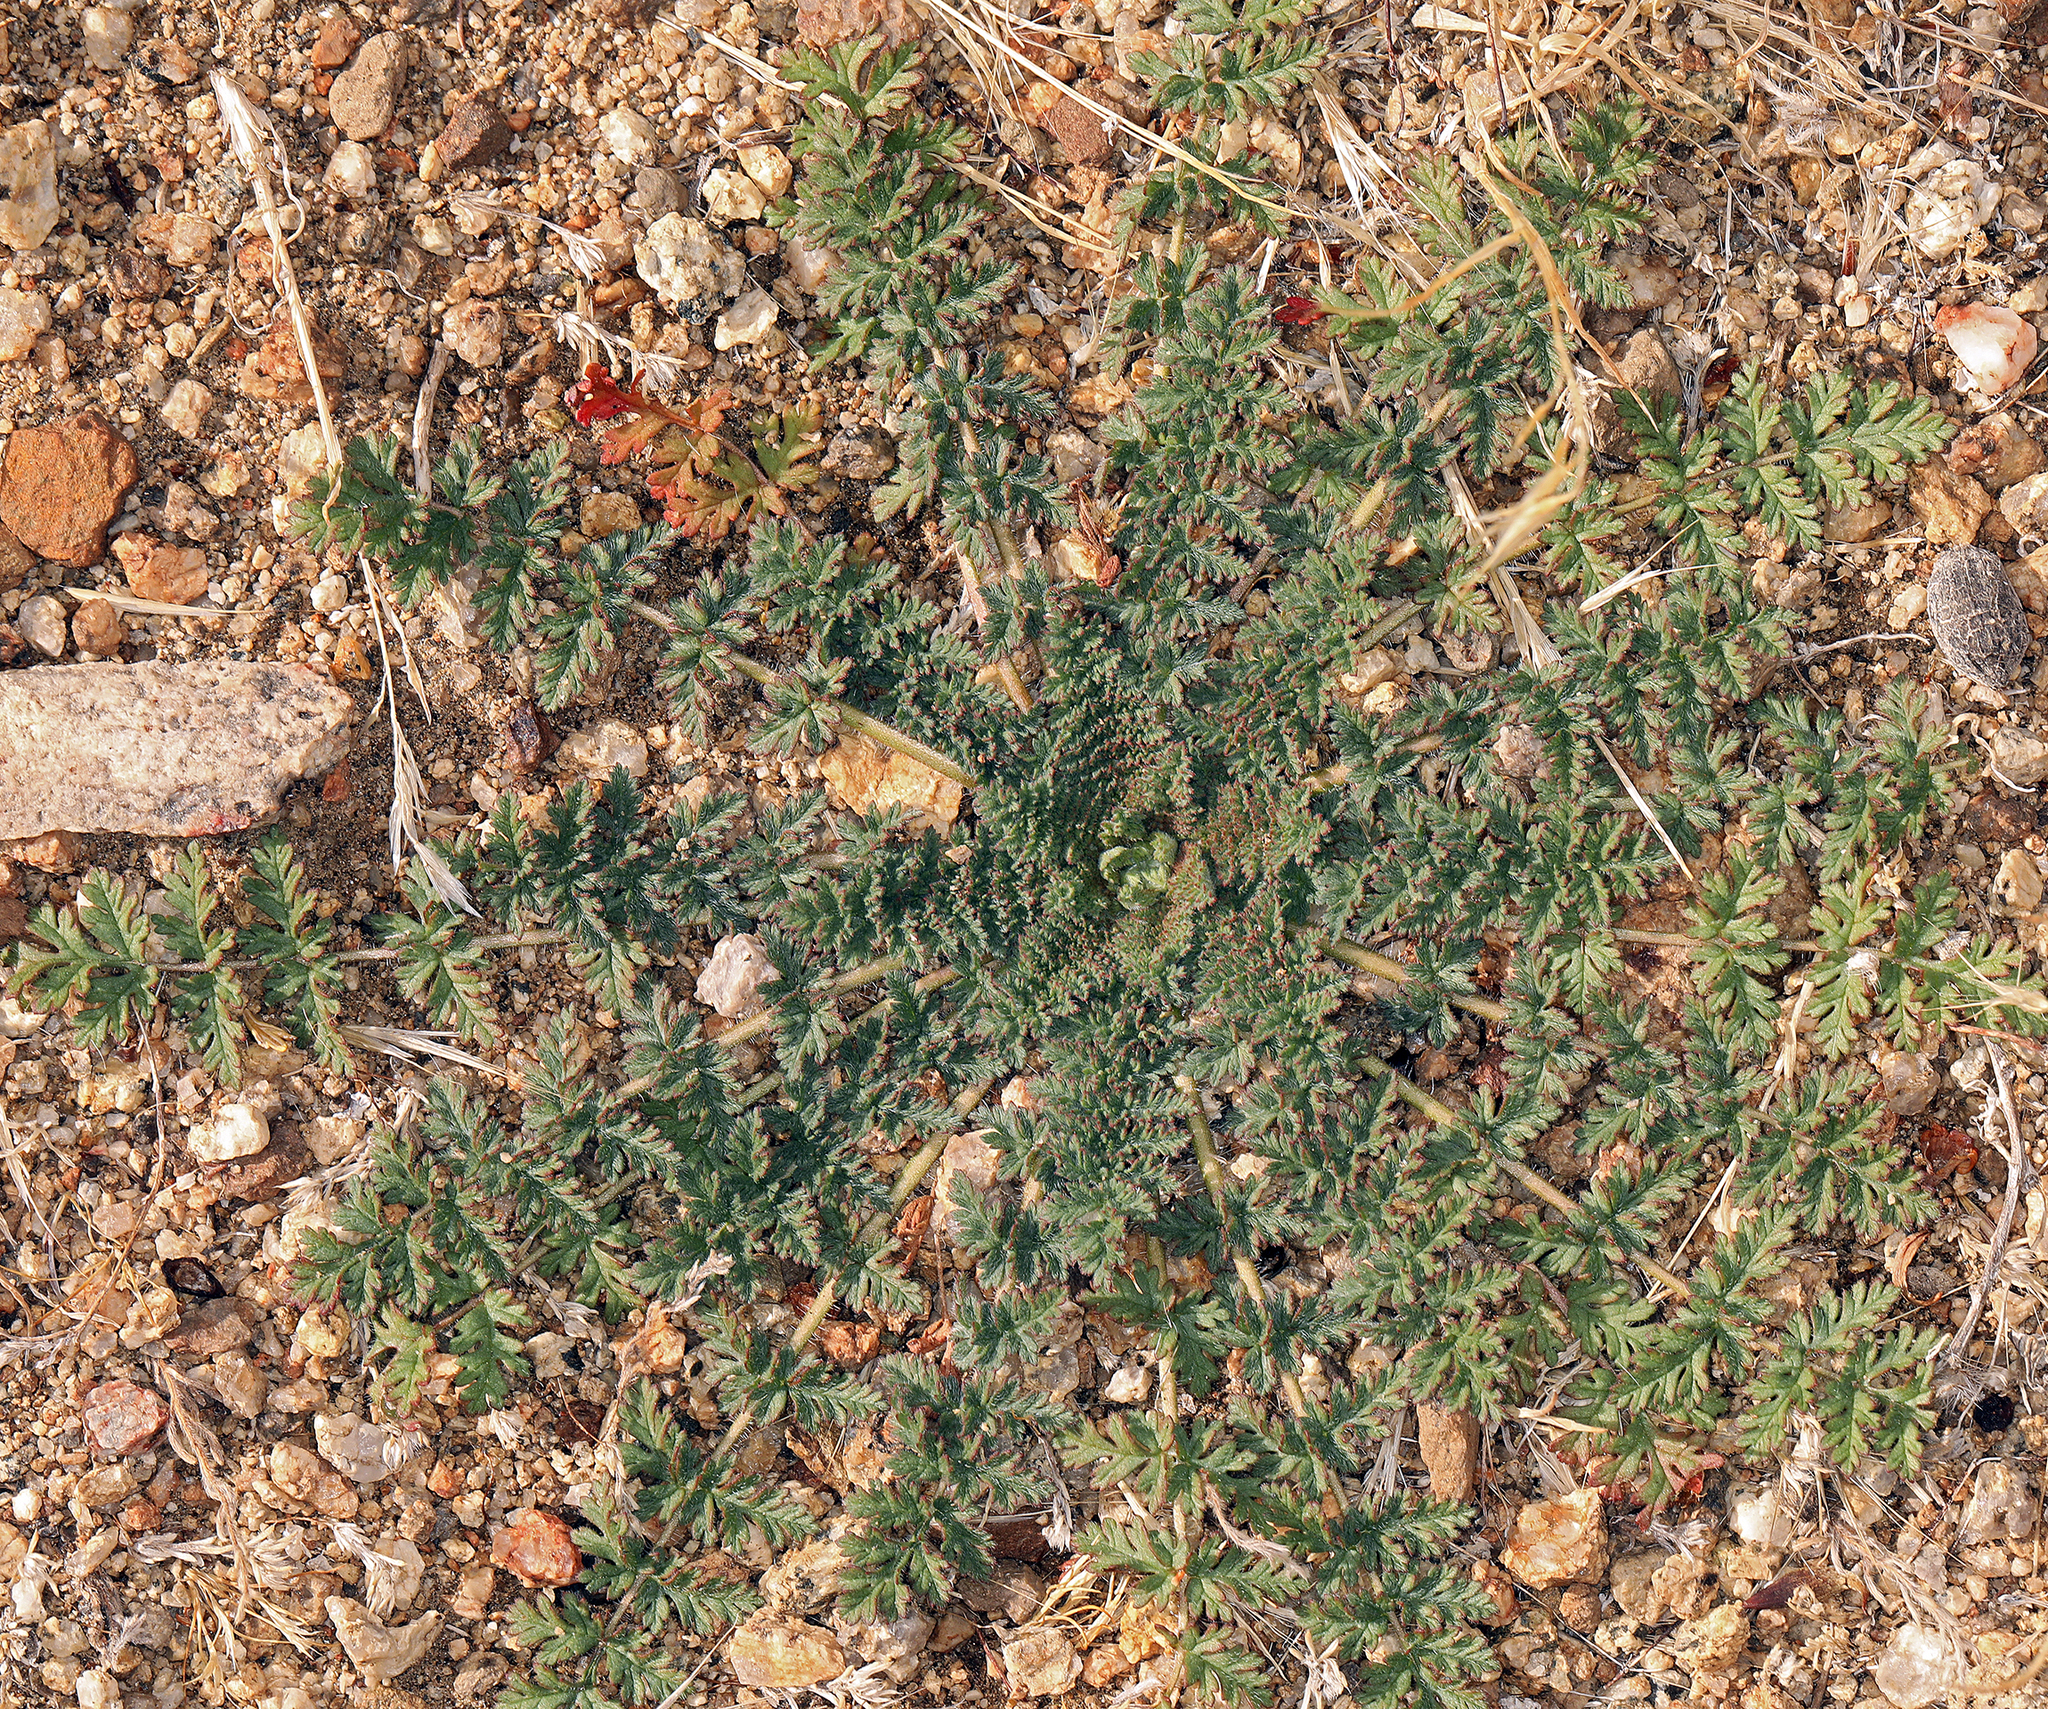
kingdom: Plantae
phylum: Tracheophyta
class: Magnoliopsida
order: Geraniales
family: Geraniaceae
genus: Erodium
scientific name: Erodium cicutarium
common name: Common stork's-bill
